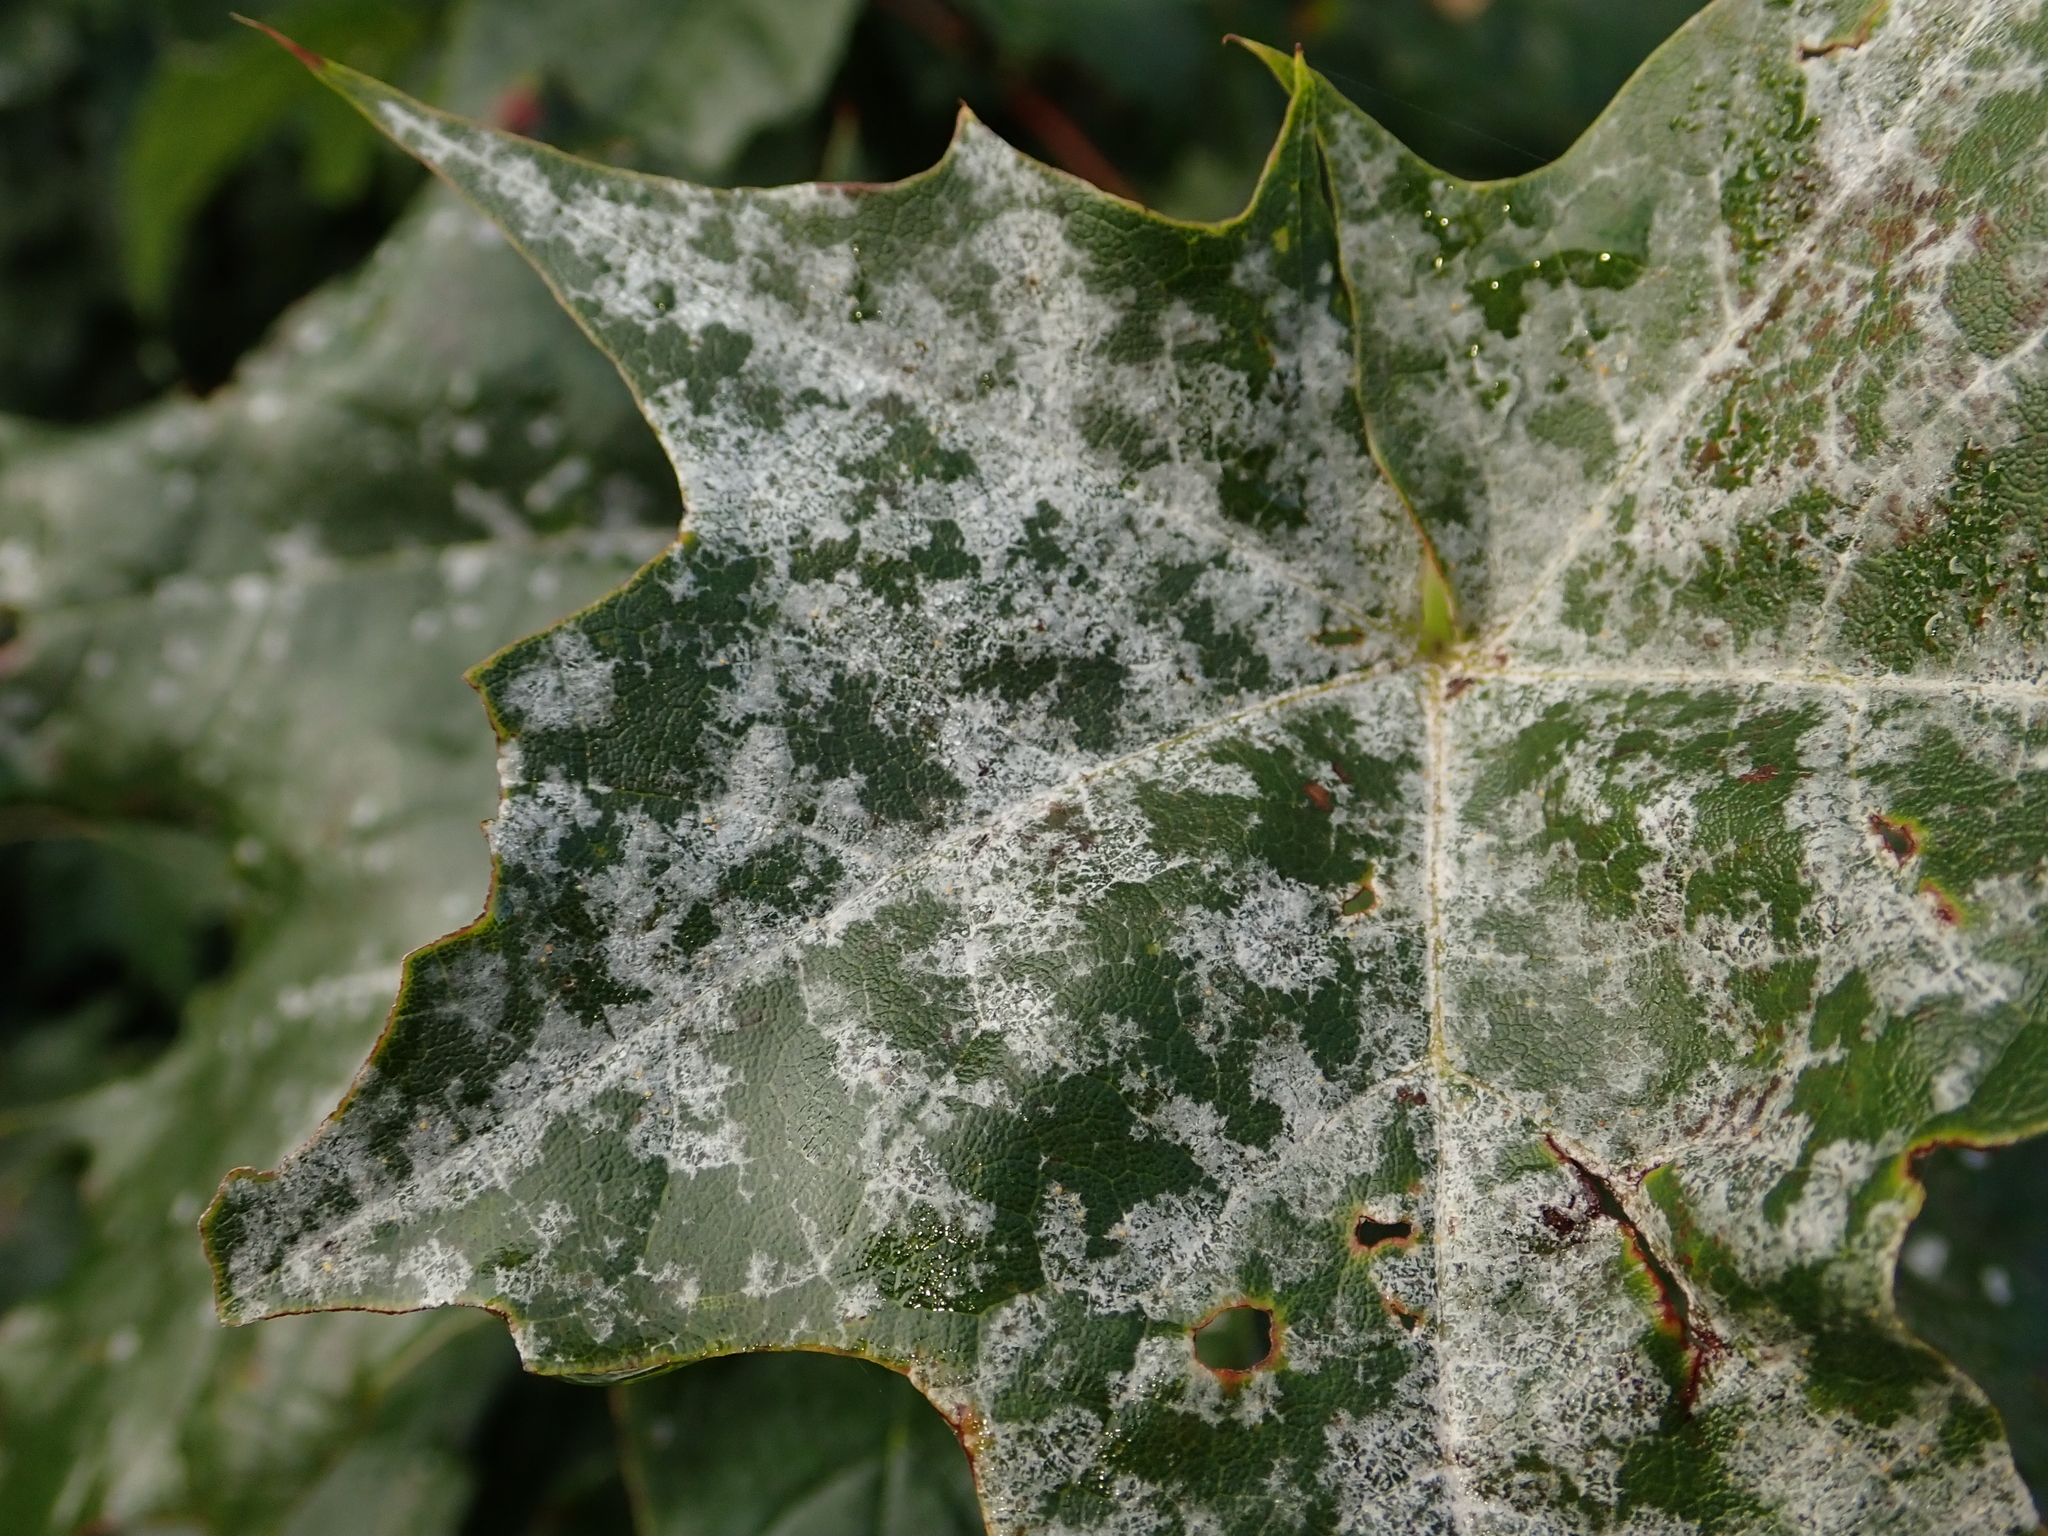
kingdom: Fungi
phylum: Ascomycota
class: Leotiomycetes
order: Helotiales
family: Erysiphaceae
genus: Sawadaea
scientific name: Sawadaea tulasnei
